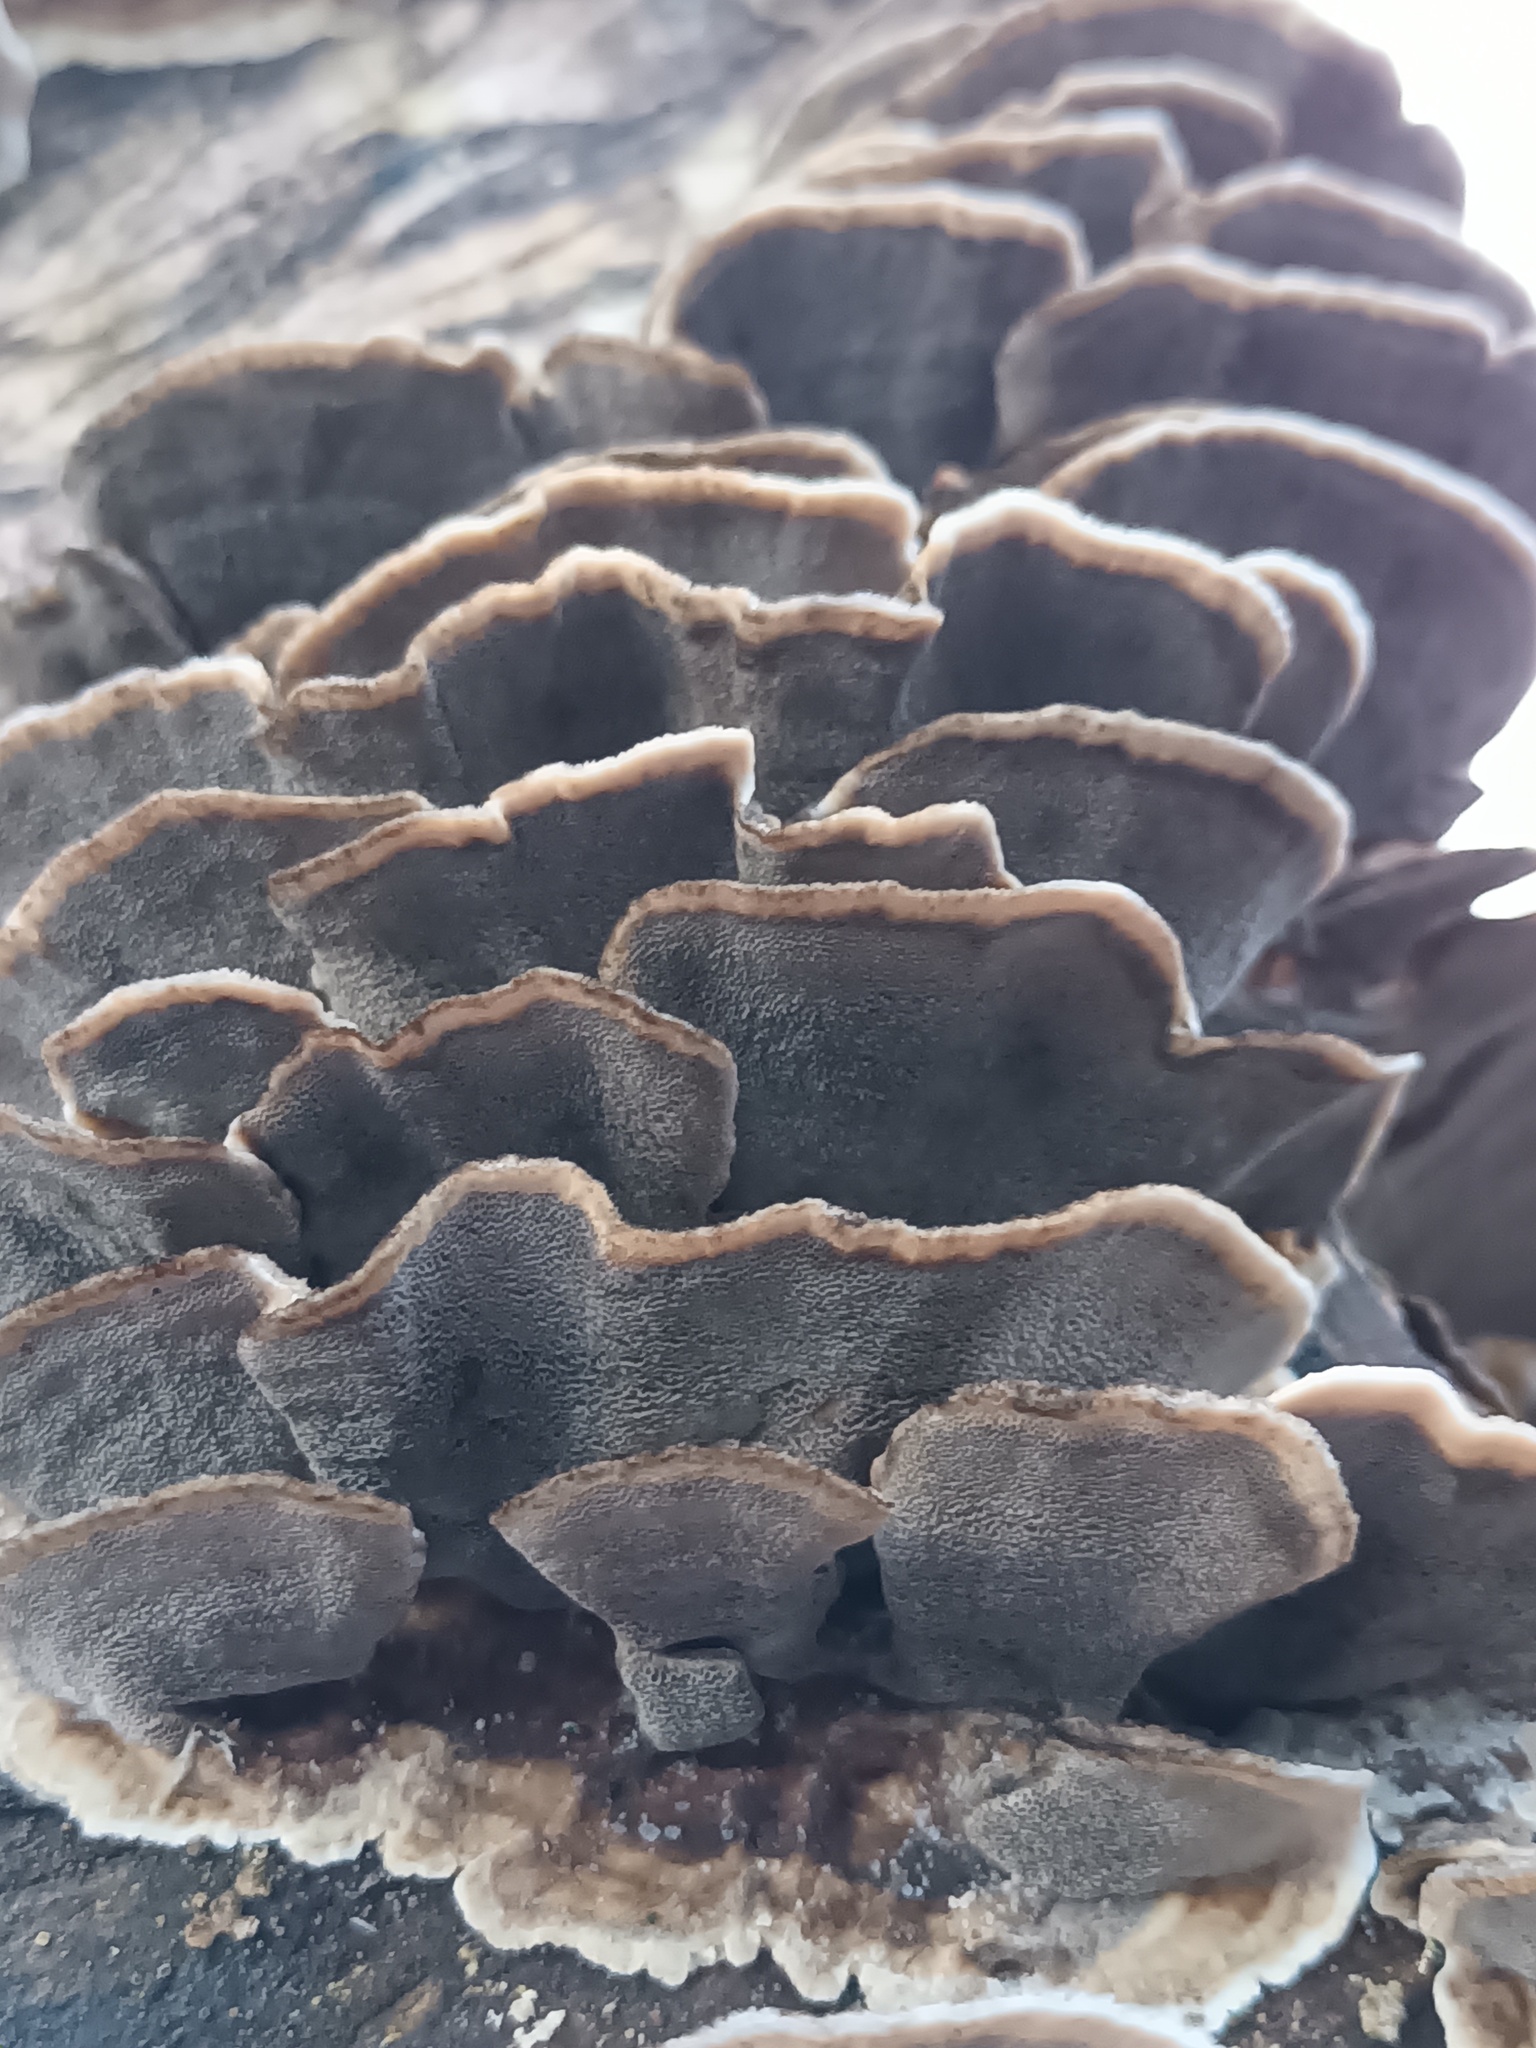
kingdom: Fungi
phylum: Basidiomycota
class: Agaricomycetes
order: Polyporales
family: Phanerochaetaceae
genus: Bjerkandera
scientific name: Bjerkandera adusta
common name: Smoky bracket
